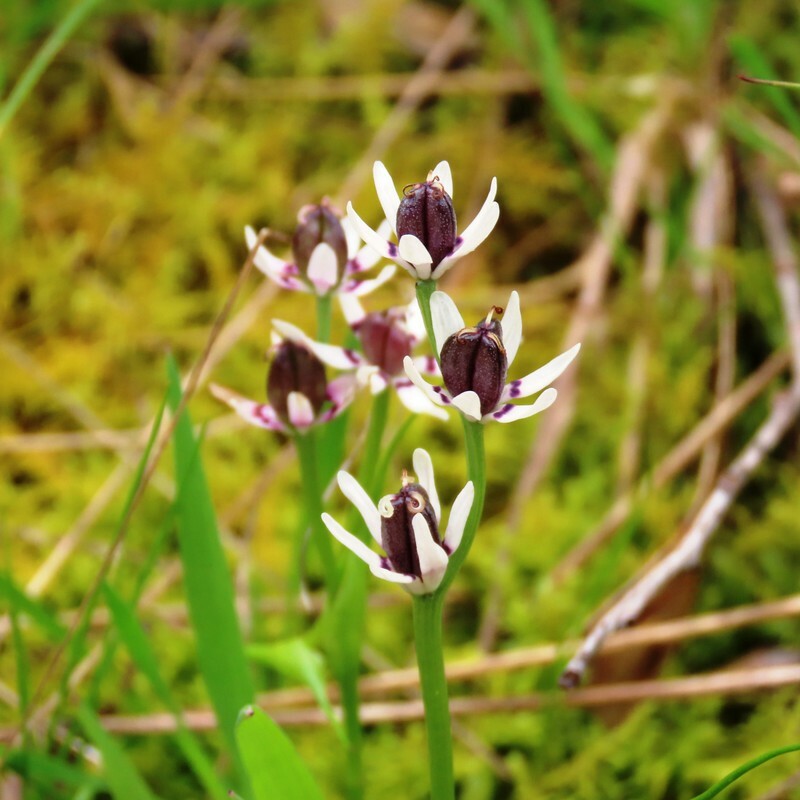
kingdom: Plantae
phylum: Tracheophyta
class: Liliopsida
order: Liliales
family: Colchicaceae
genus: Wurmbea
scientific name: Wurmbea dioica
